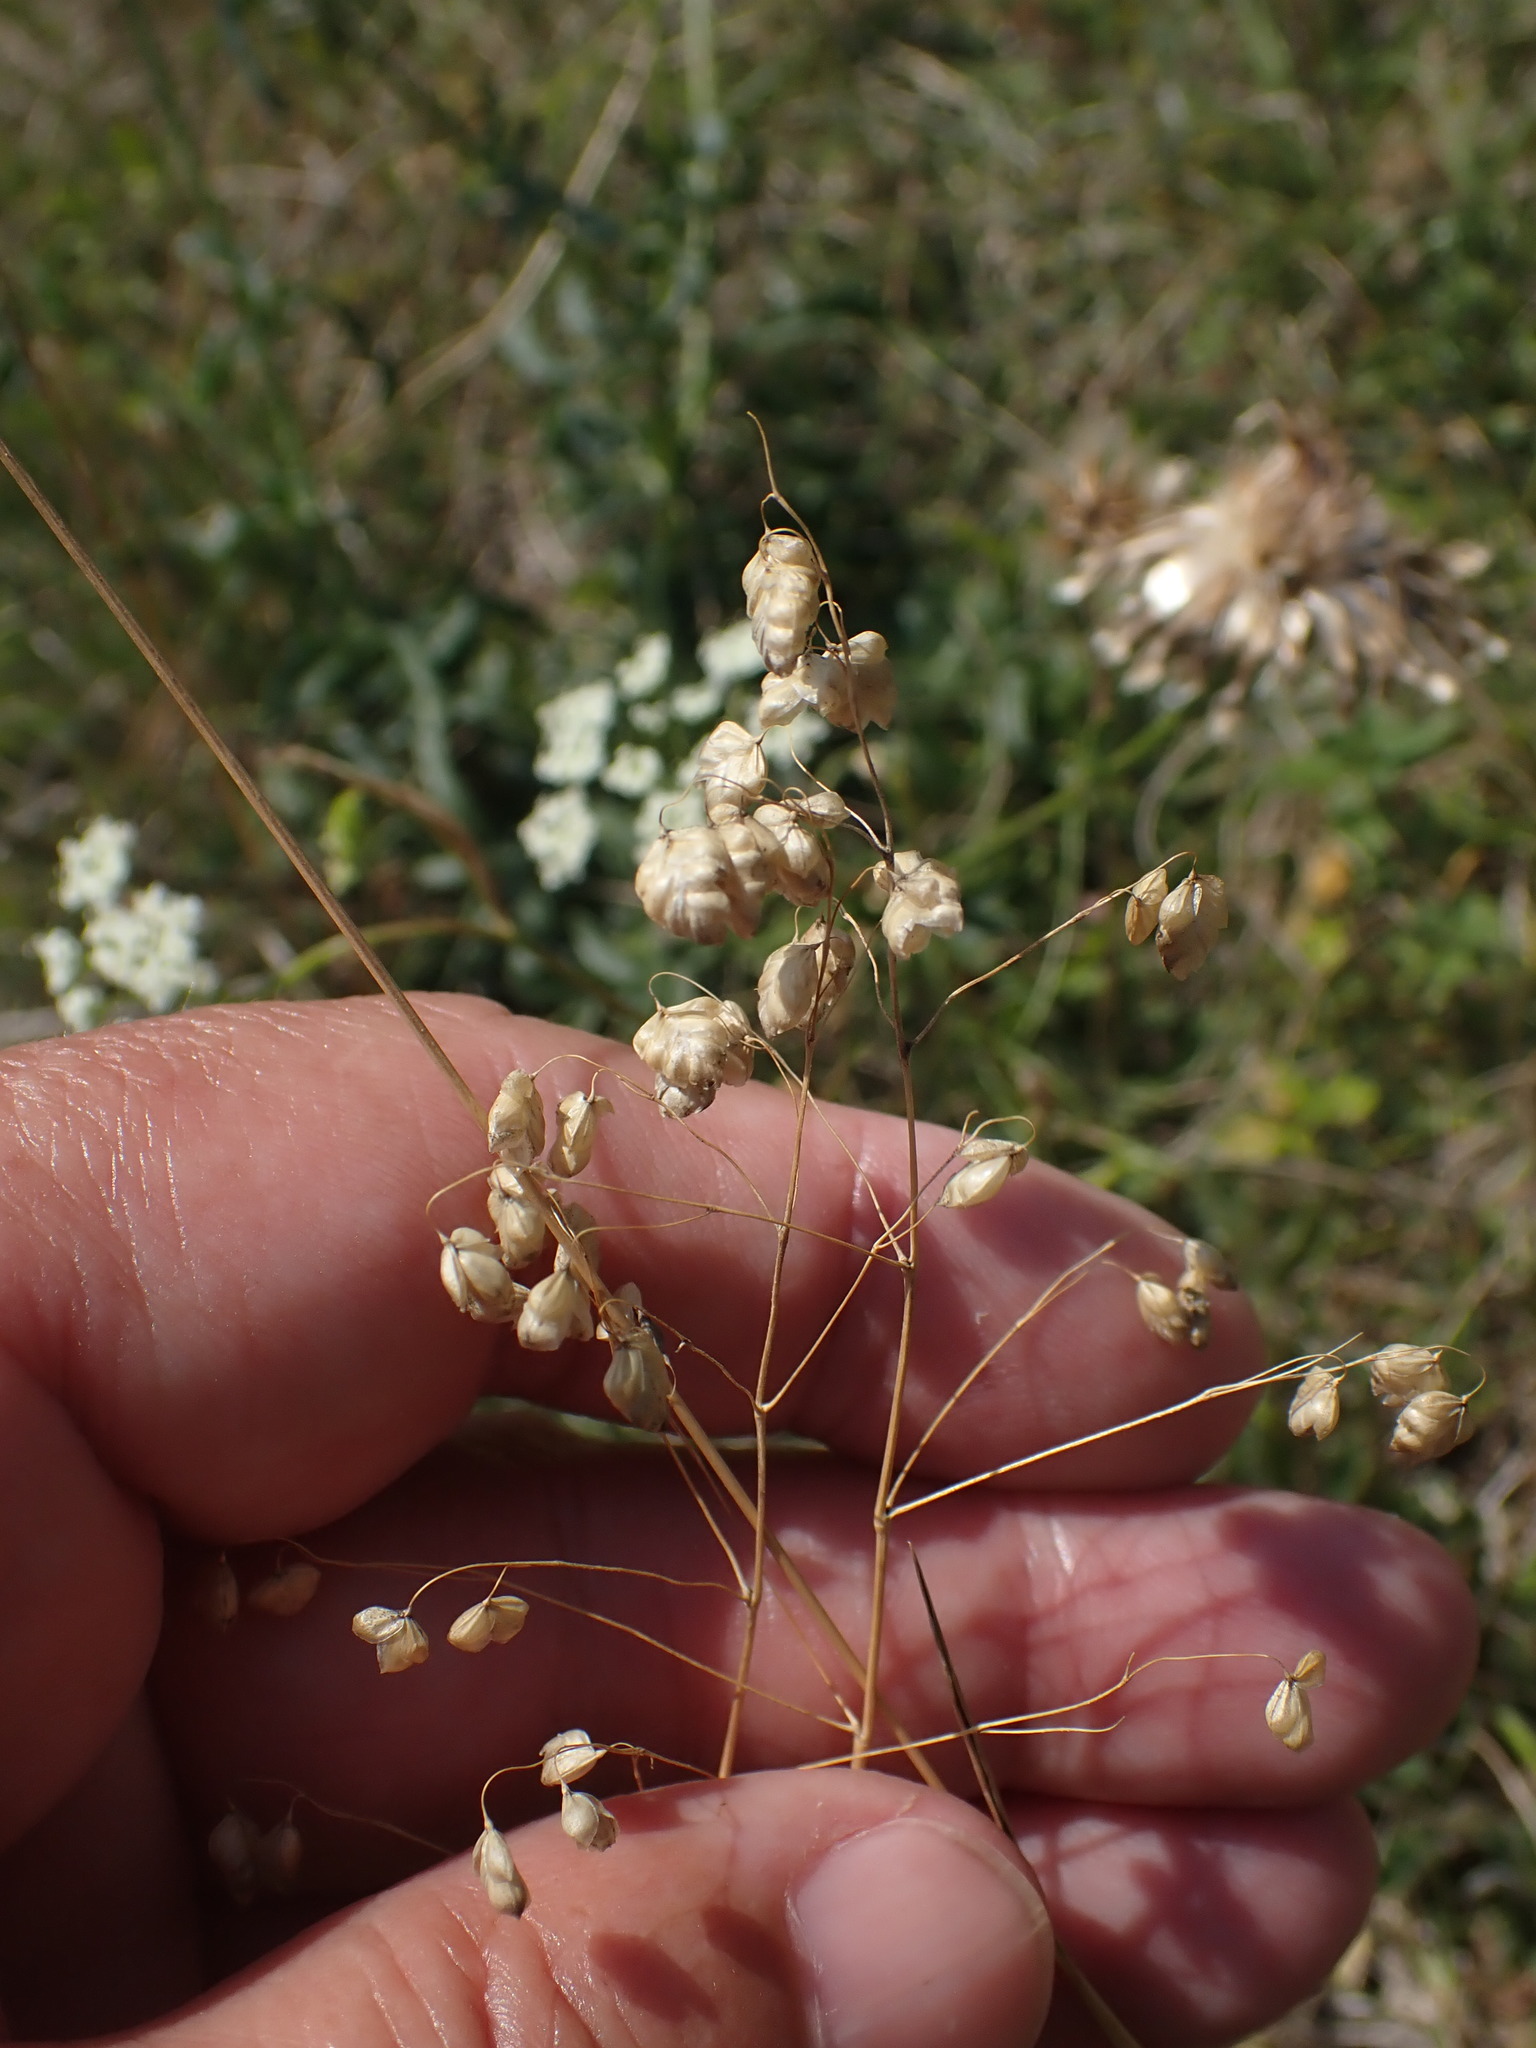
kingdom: Plantae
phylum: Tracheophyta
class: Liliopsida
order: Poales
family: Poaceae
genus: Briza
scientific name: Briza media
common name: Quaking grass
